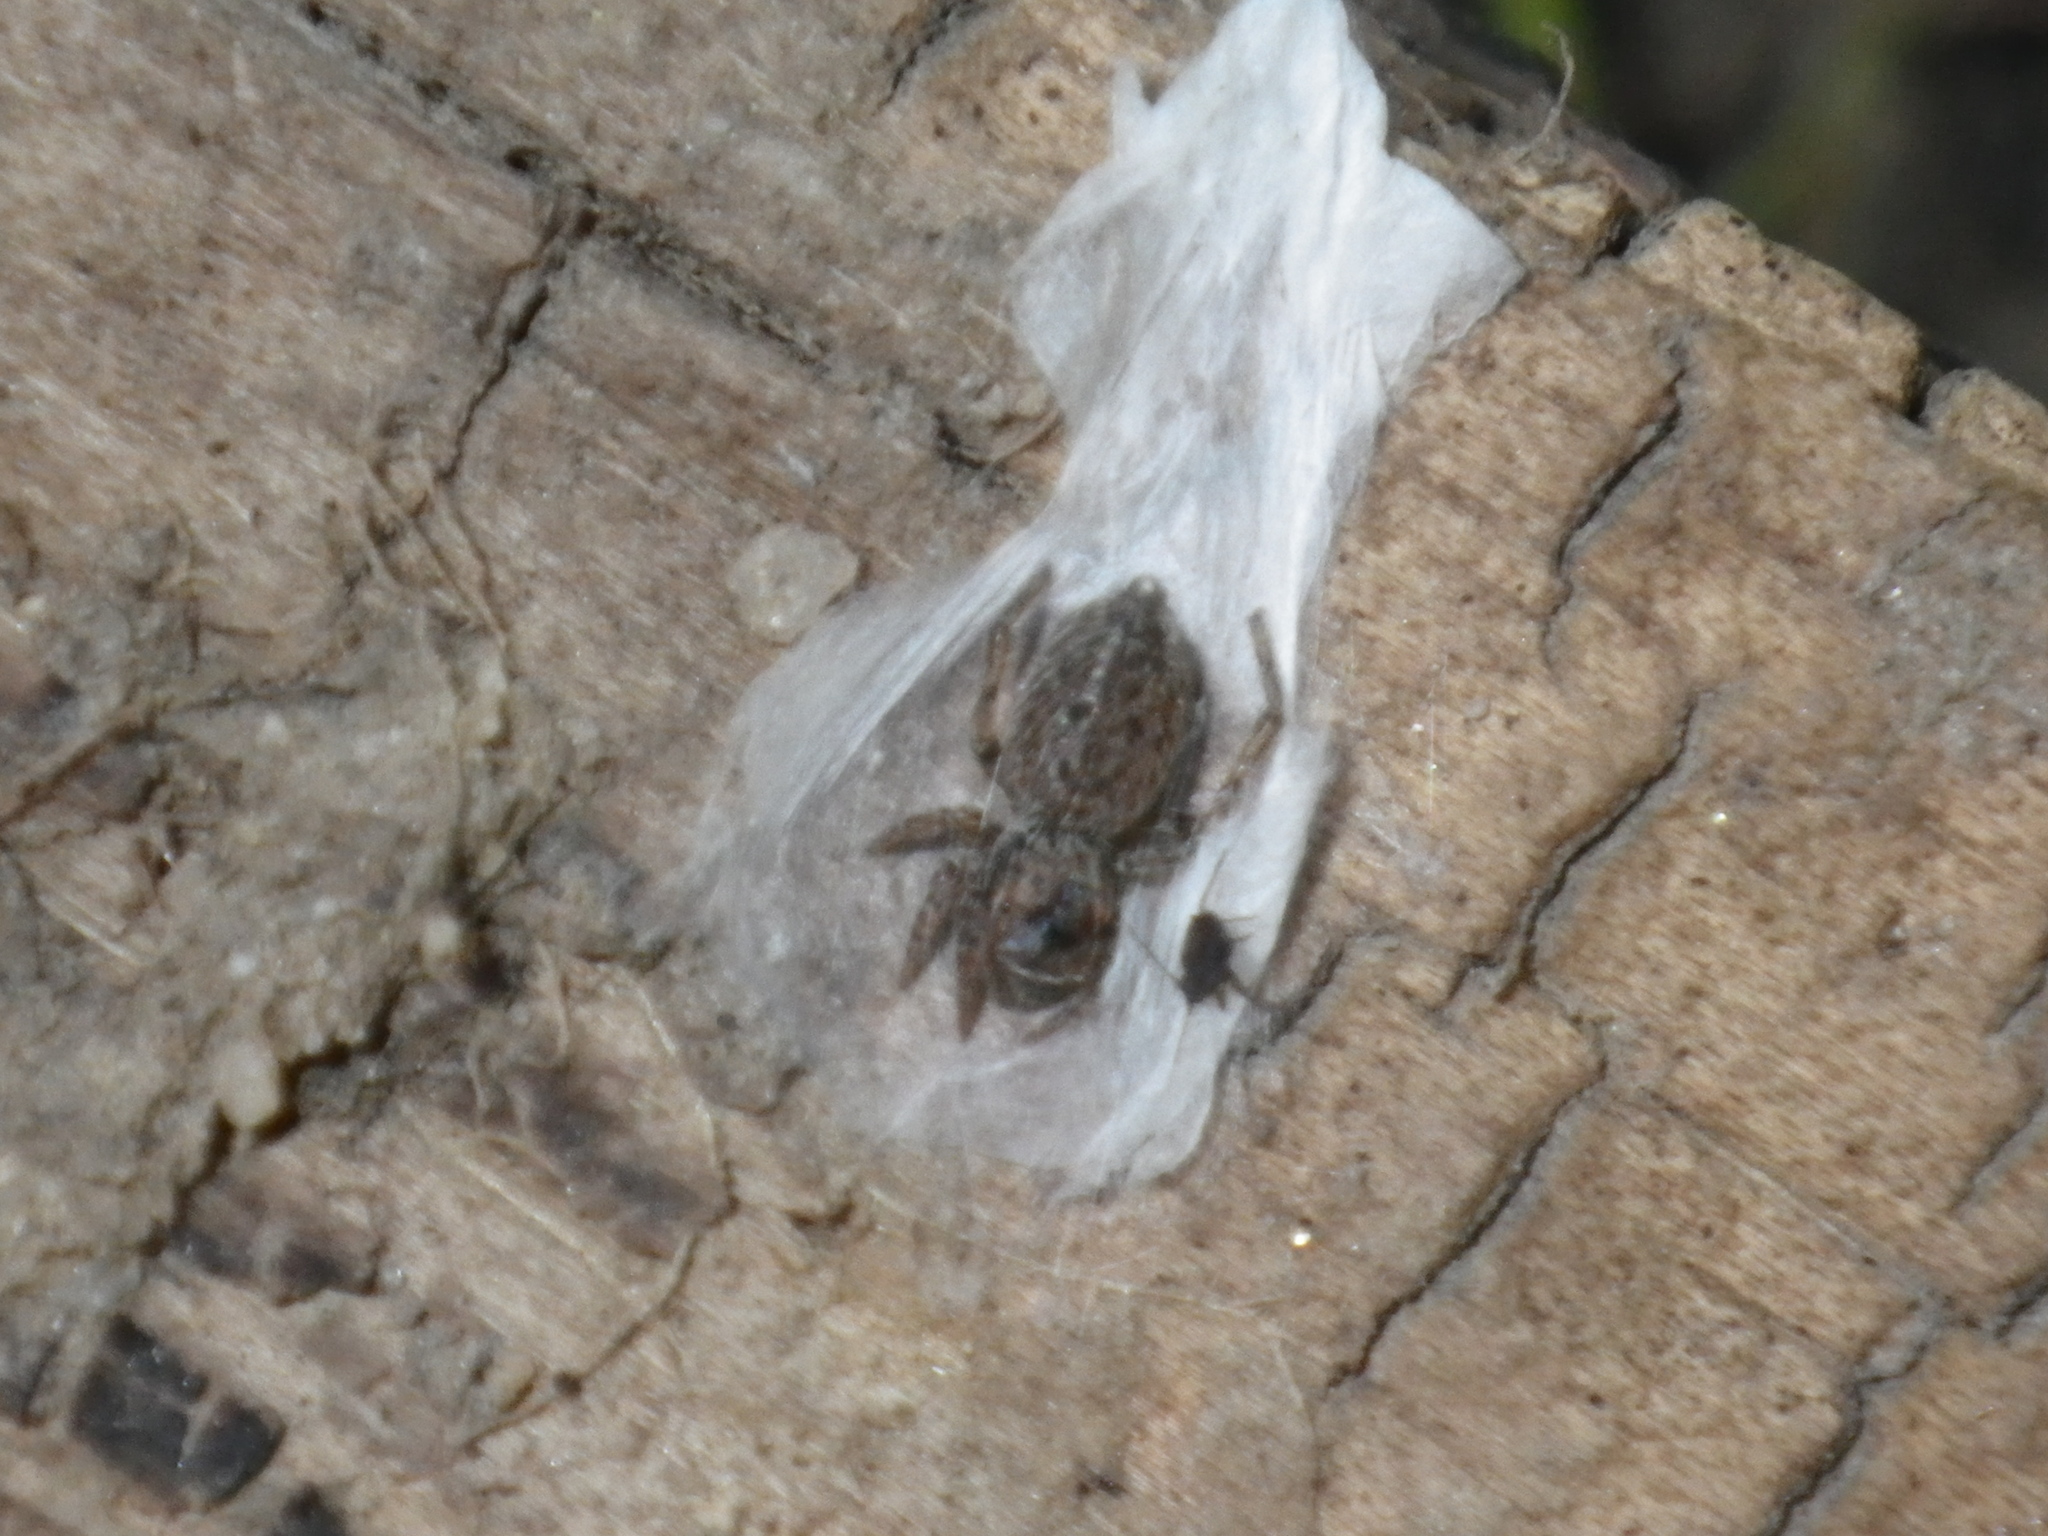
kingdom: Animalia
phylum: Arthropoda
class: Arachnida
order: Araneae
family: Salticidae
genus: Attinella
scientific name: Attinella dorsata
